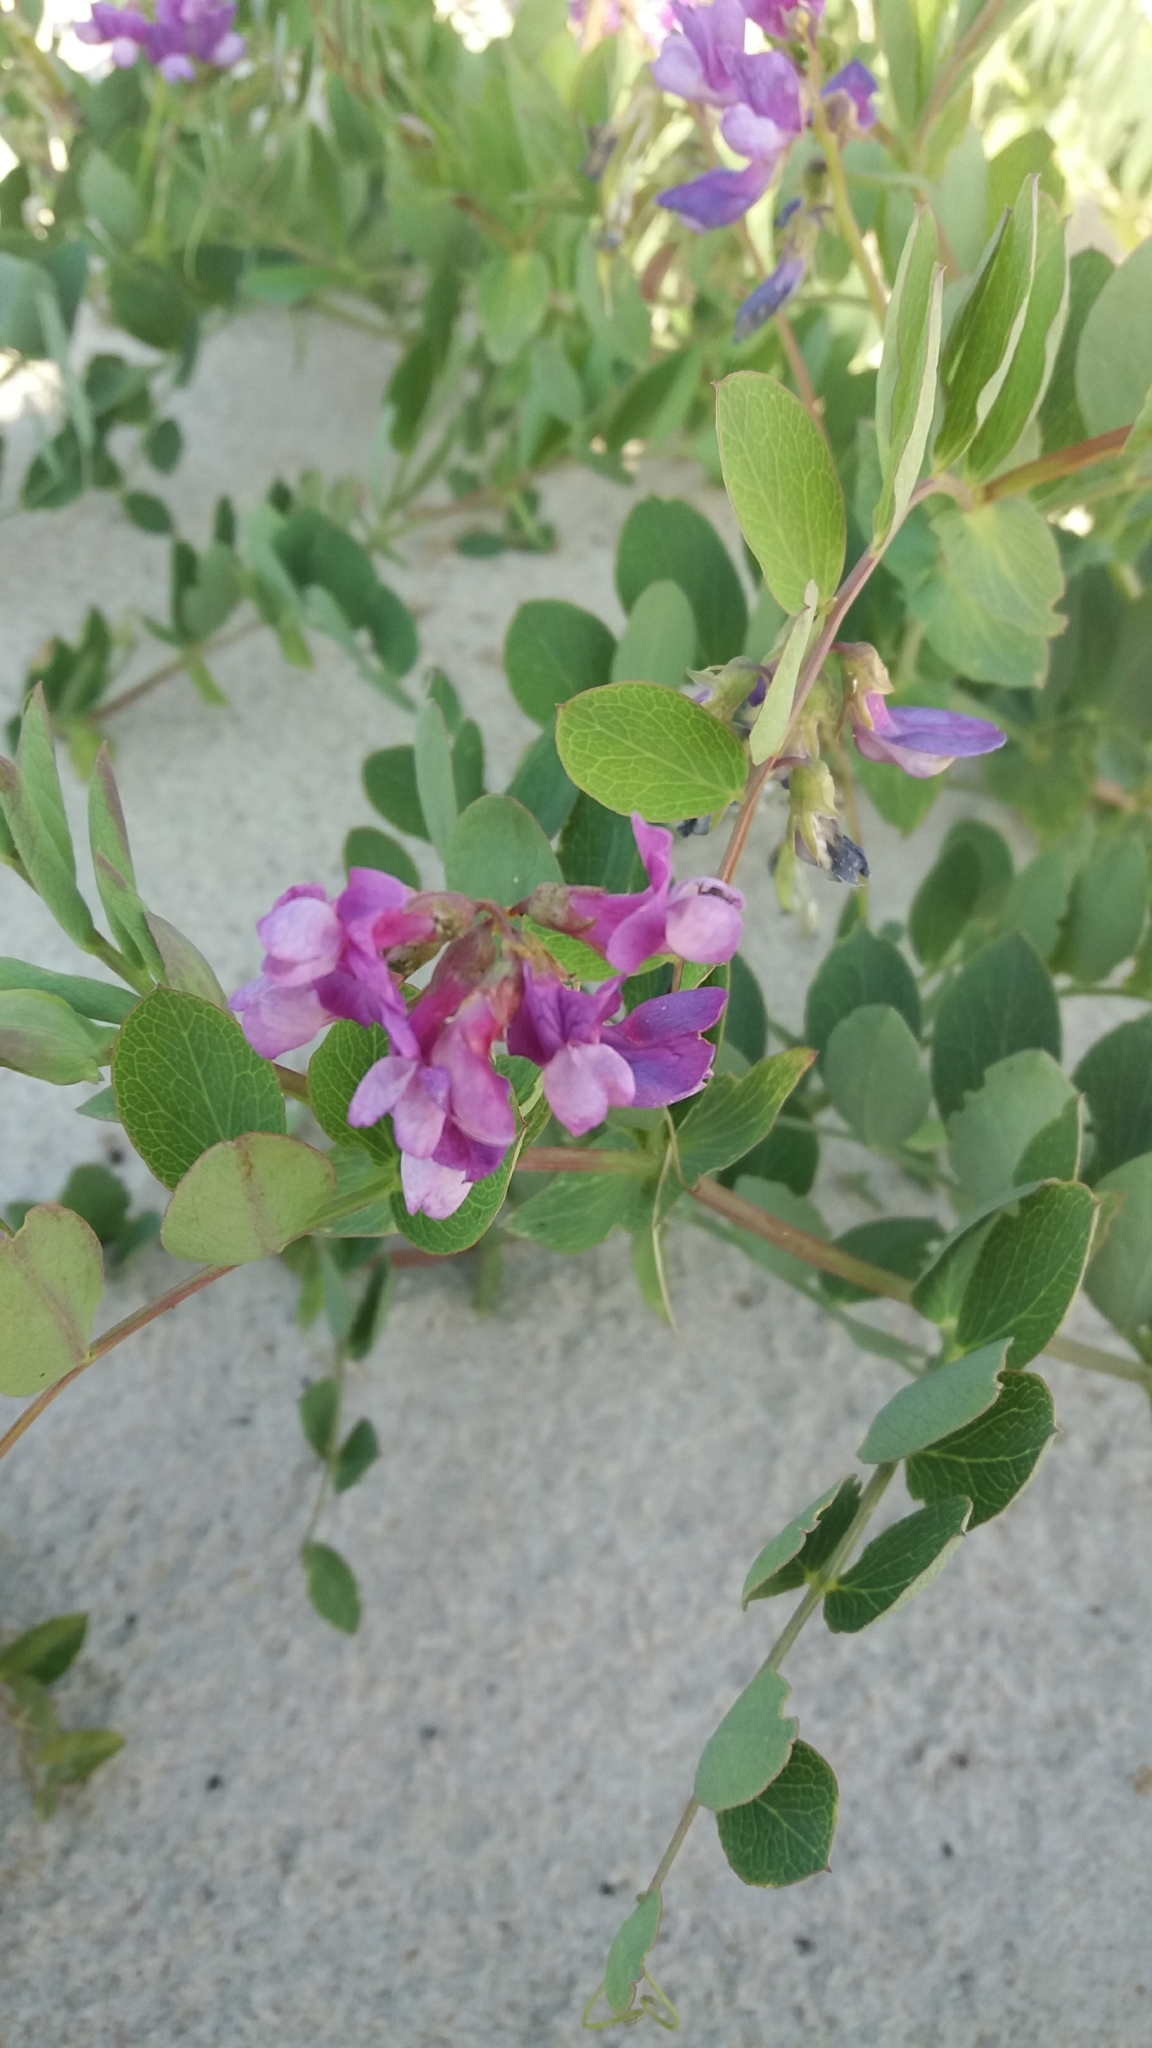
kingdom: Plantae
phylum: Tracheophyta
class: Magnoliopsida
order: Fabales
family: Fabaceae
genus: Lathyrus
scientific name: Lathyrus japonicus
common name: Sea pea
